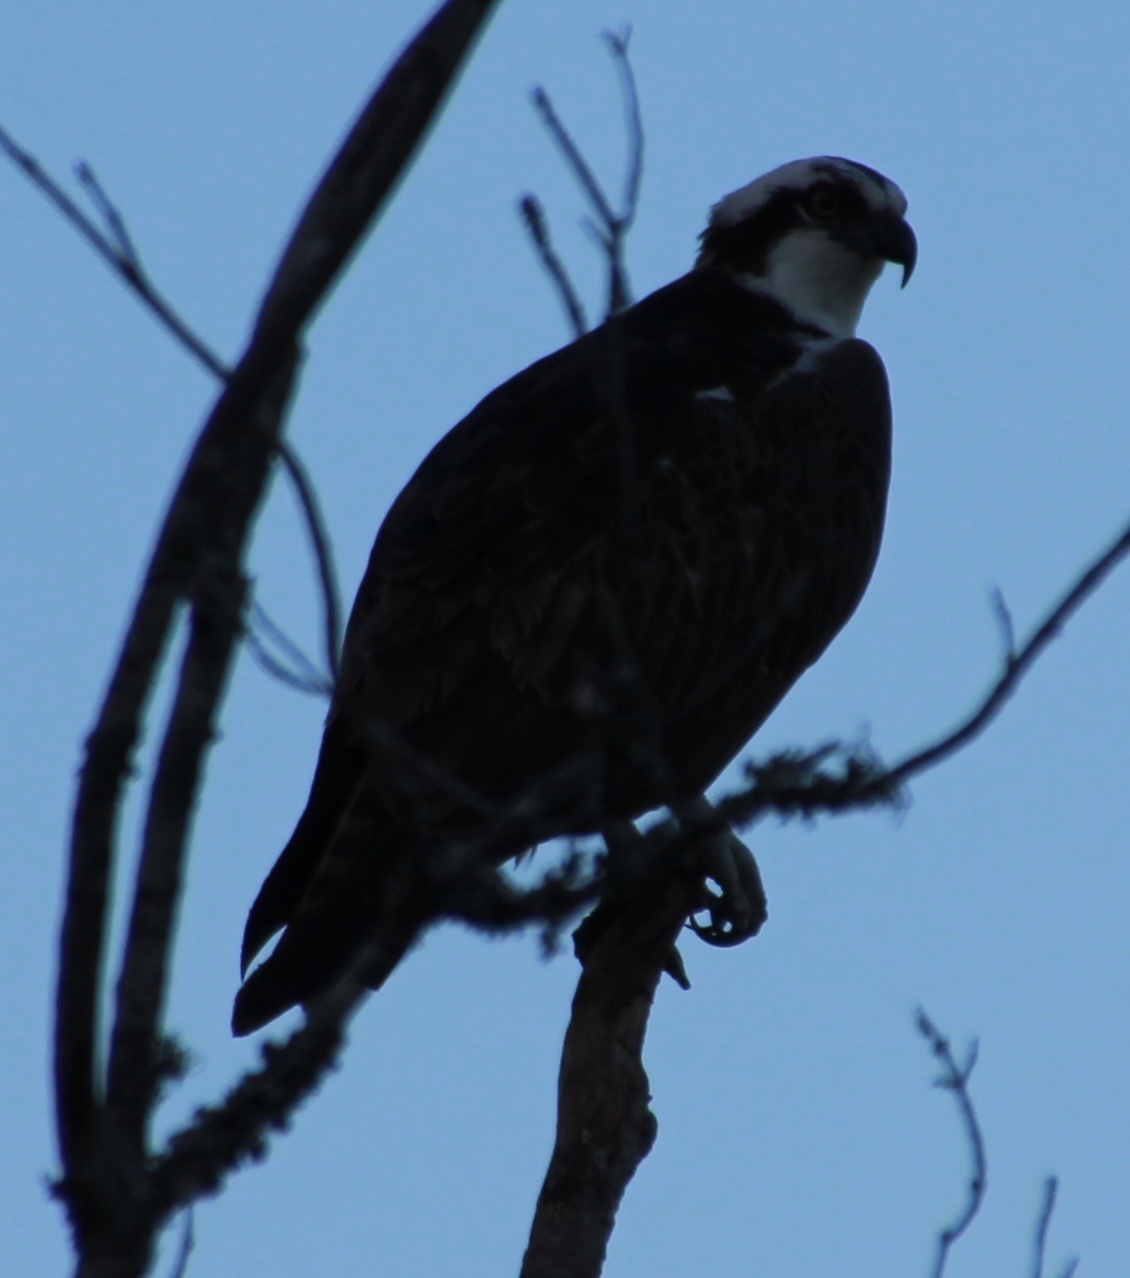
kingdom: Animalia
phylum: Chordata
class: Aves
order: Accipitriformes
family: Pandionidae
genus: Pandion
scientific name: Pandion haliaetus
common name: Osprey
